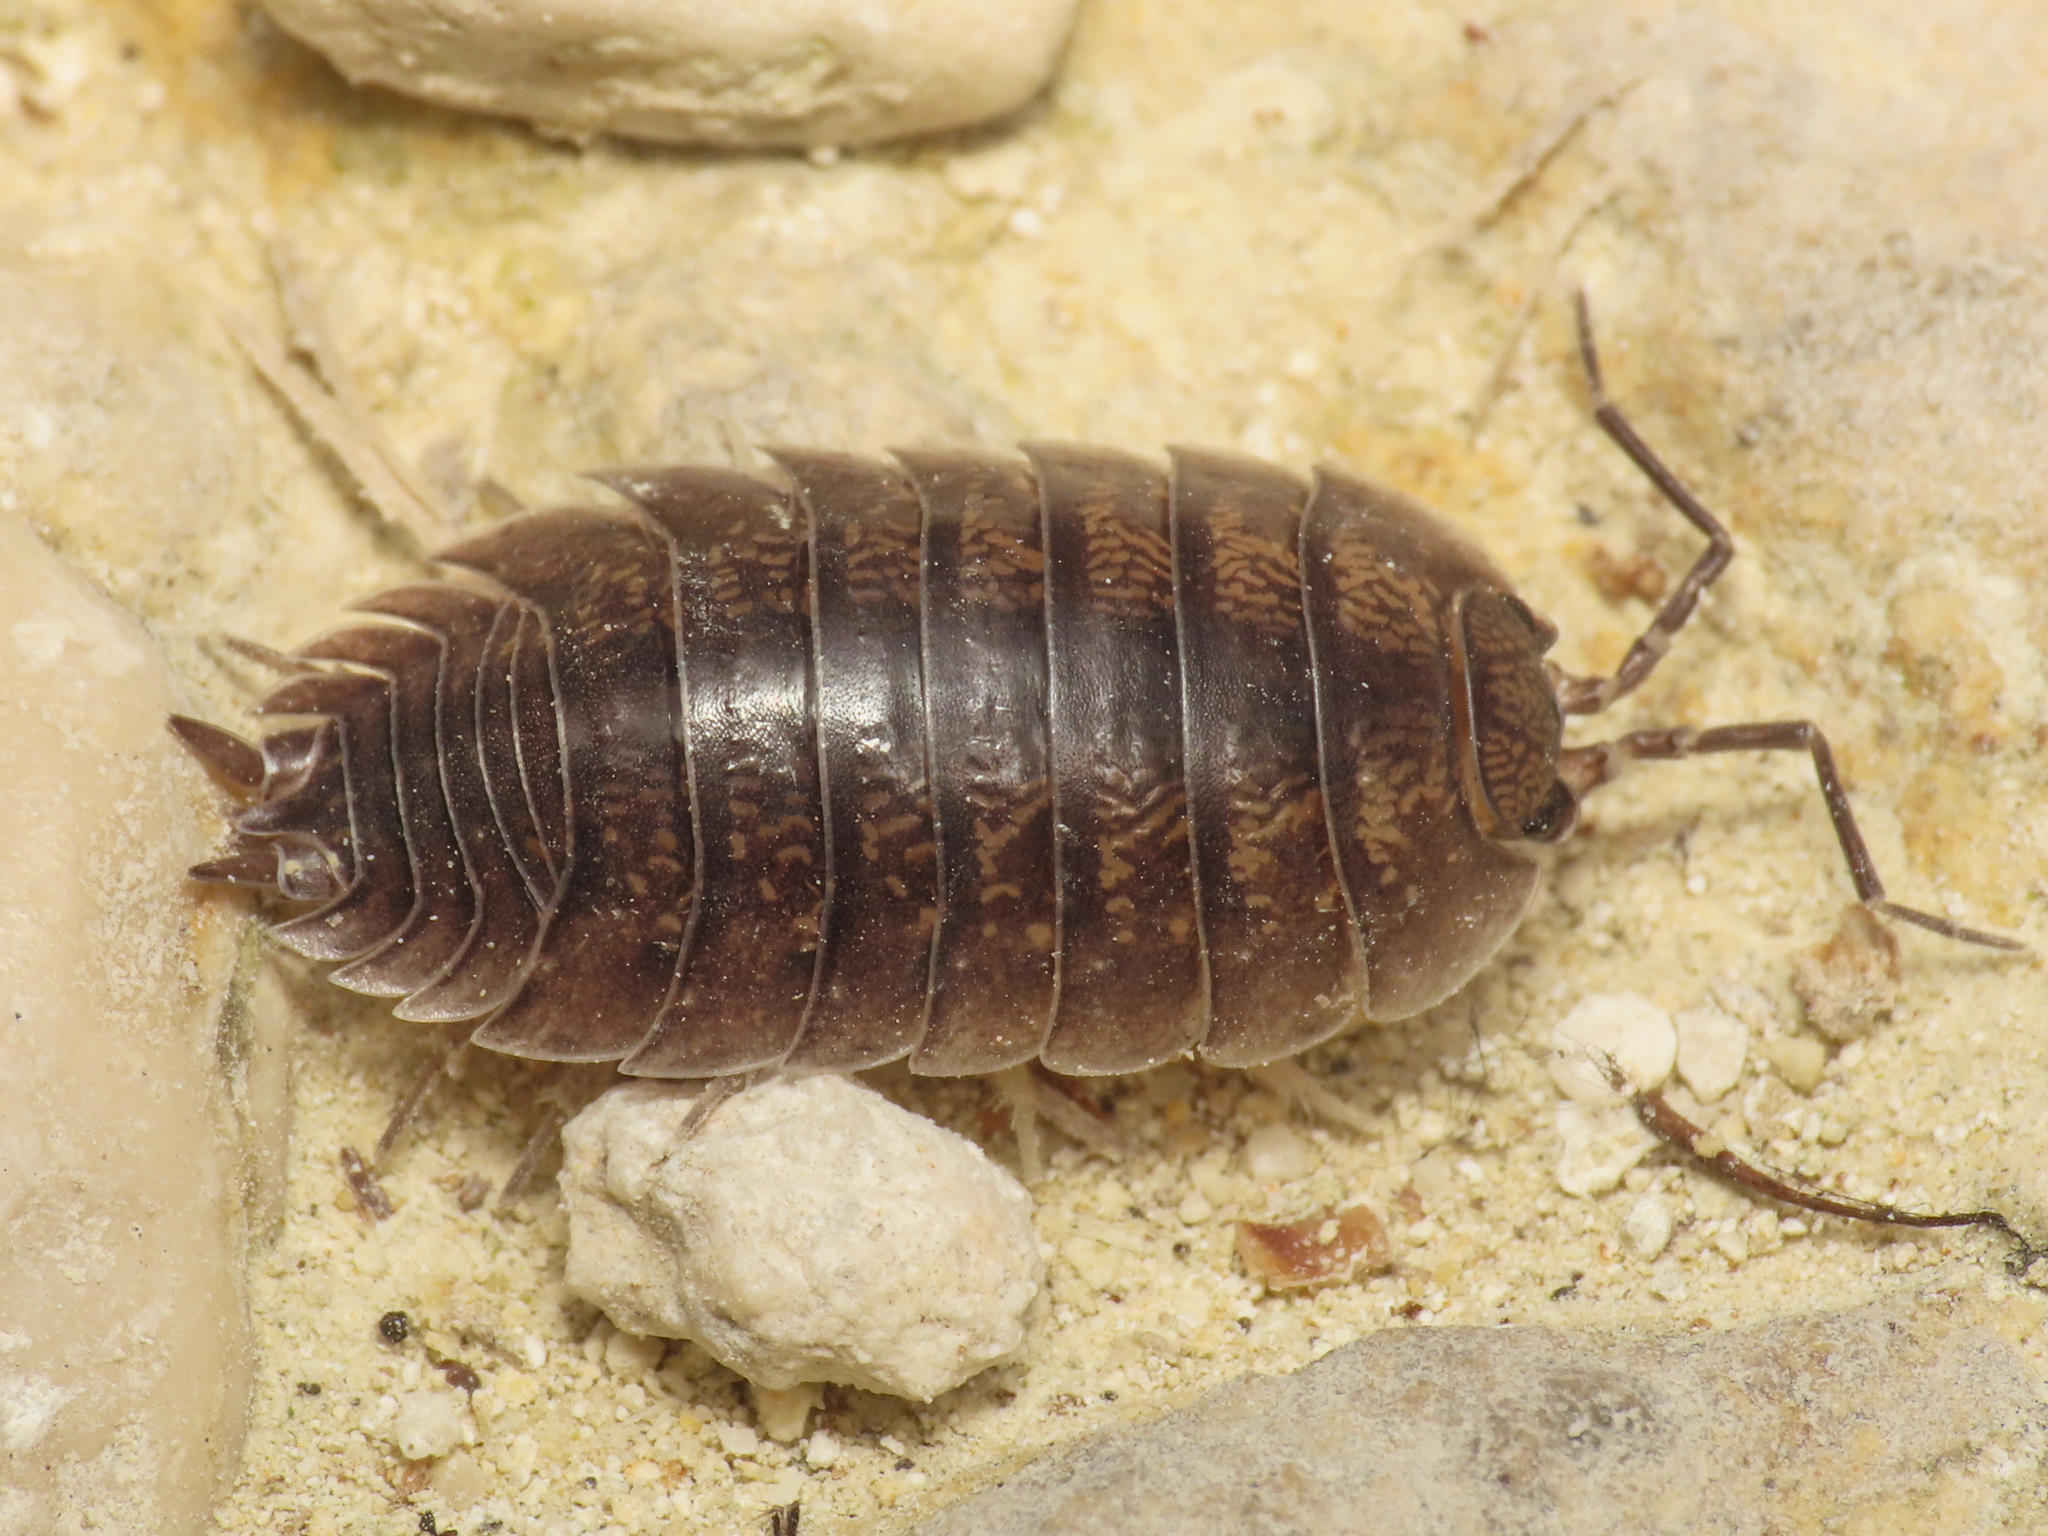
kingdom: Animalia
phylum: Arthropoda
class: Malacostraca
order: Isopoda
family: Porcellionidae
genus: Porcellio
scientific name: Porcellio laevis
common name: Swift woodlouse
